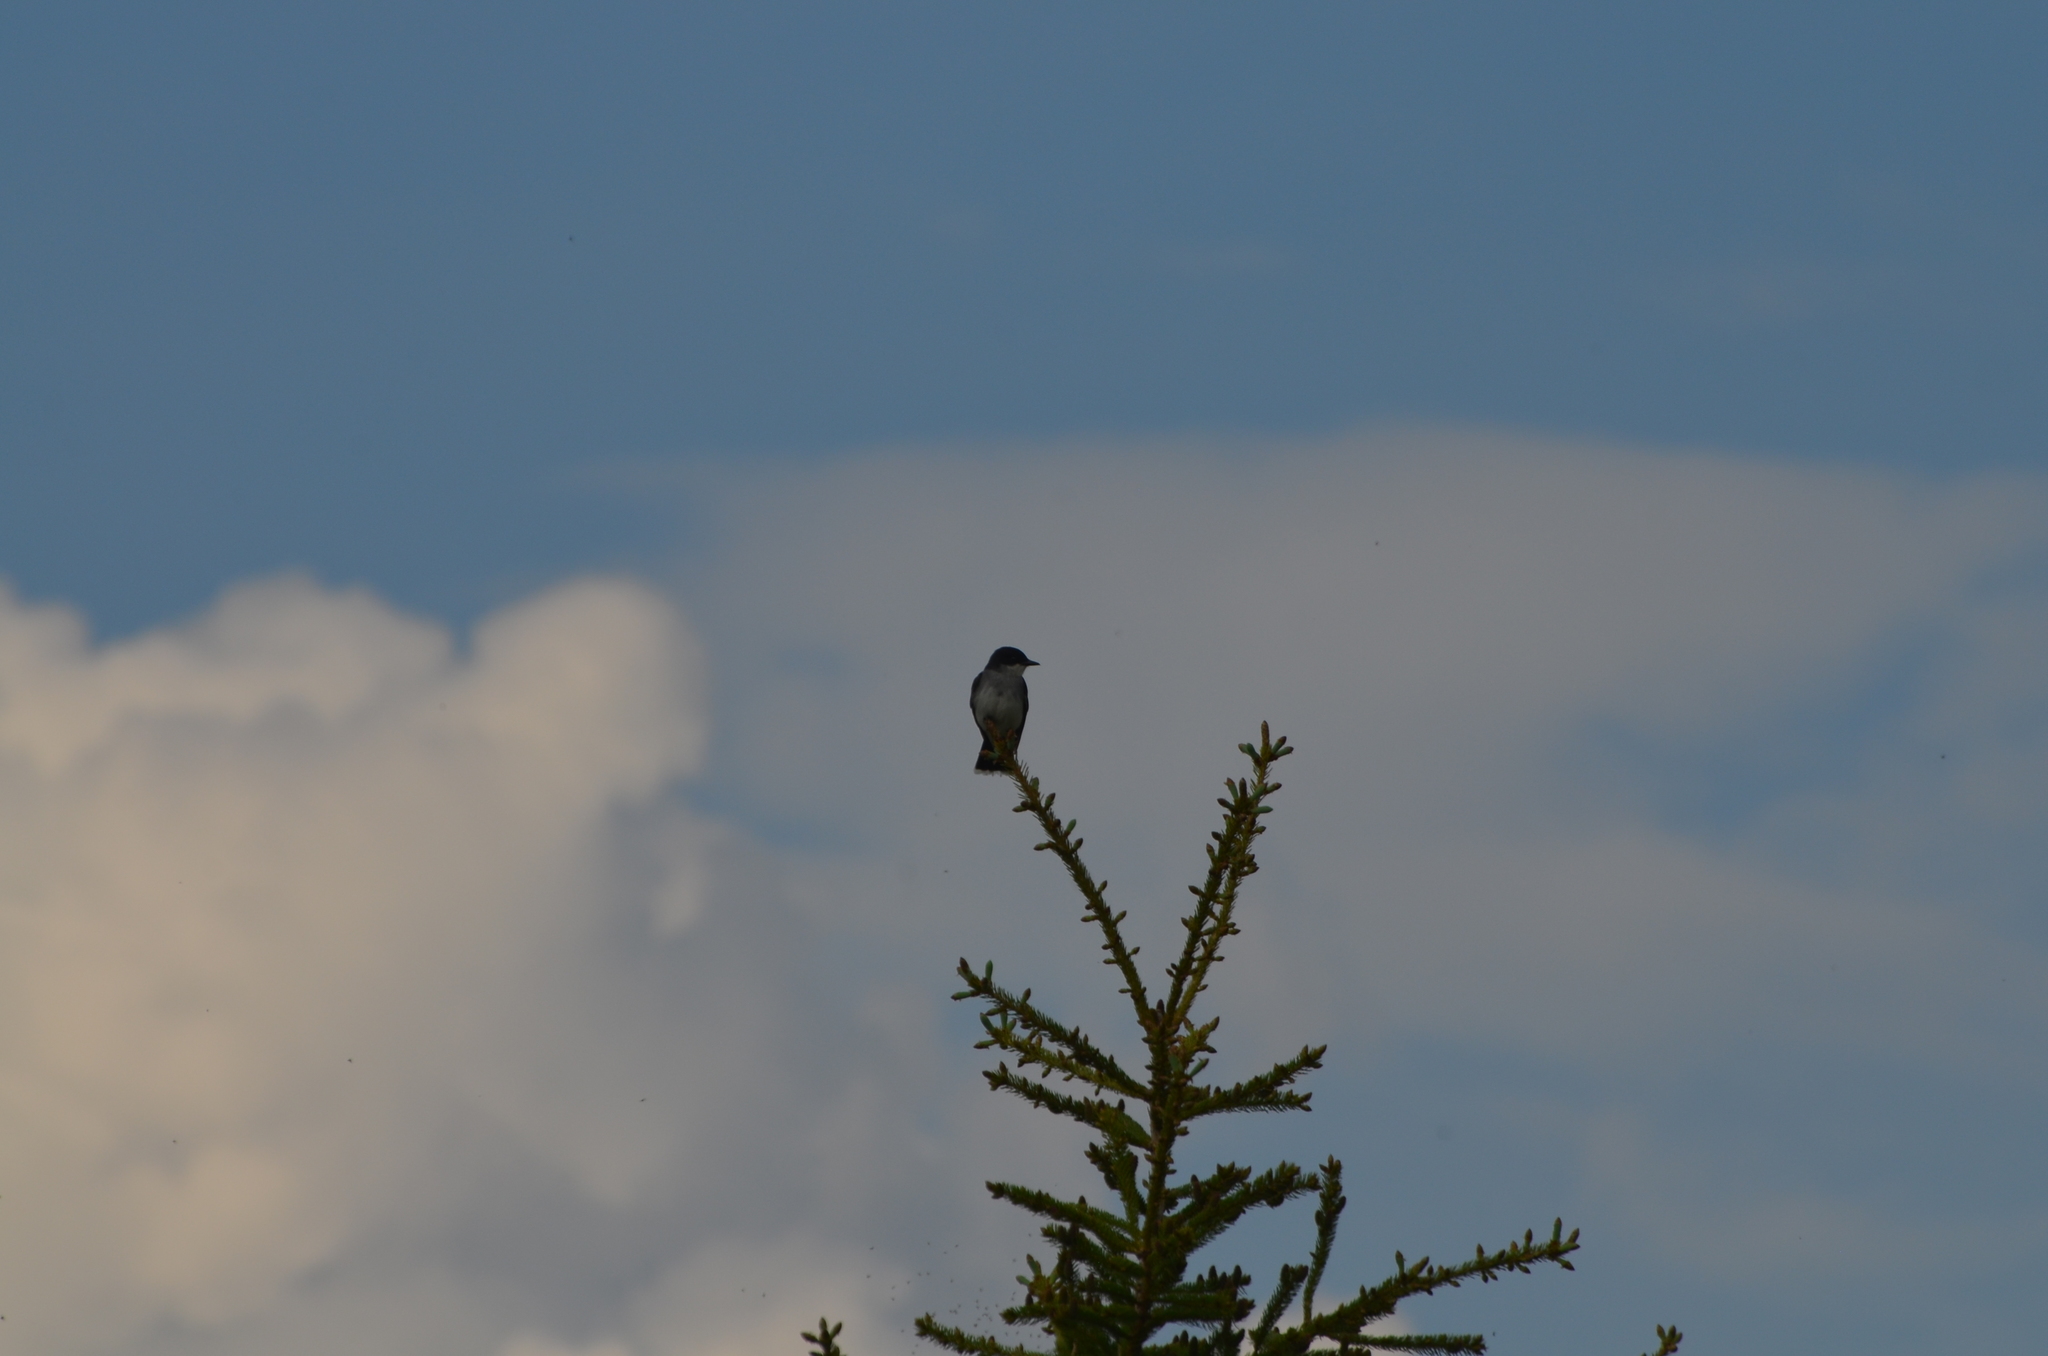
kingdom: Animalia
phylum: Chordata
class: Aves
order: Passeriformes
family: Tyrannidae
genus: Tyrannus
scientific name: Tyrannus tyrannus
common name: Eastern kingbird
